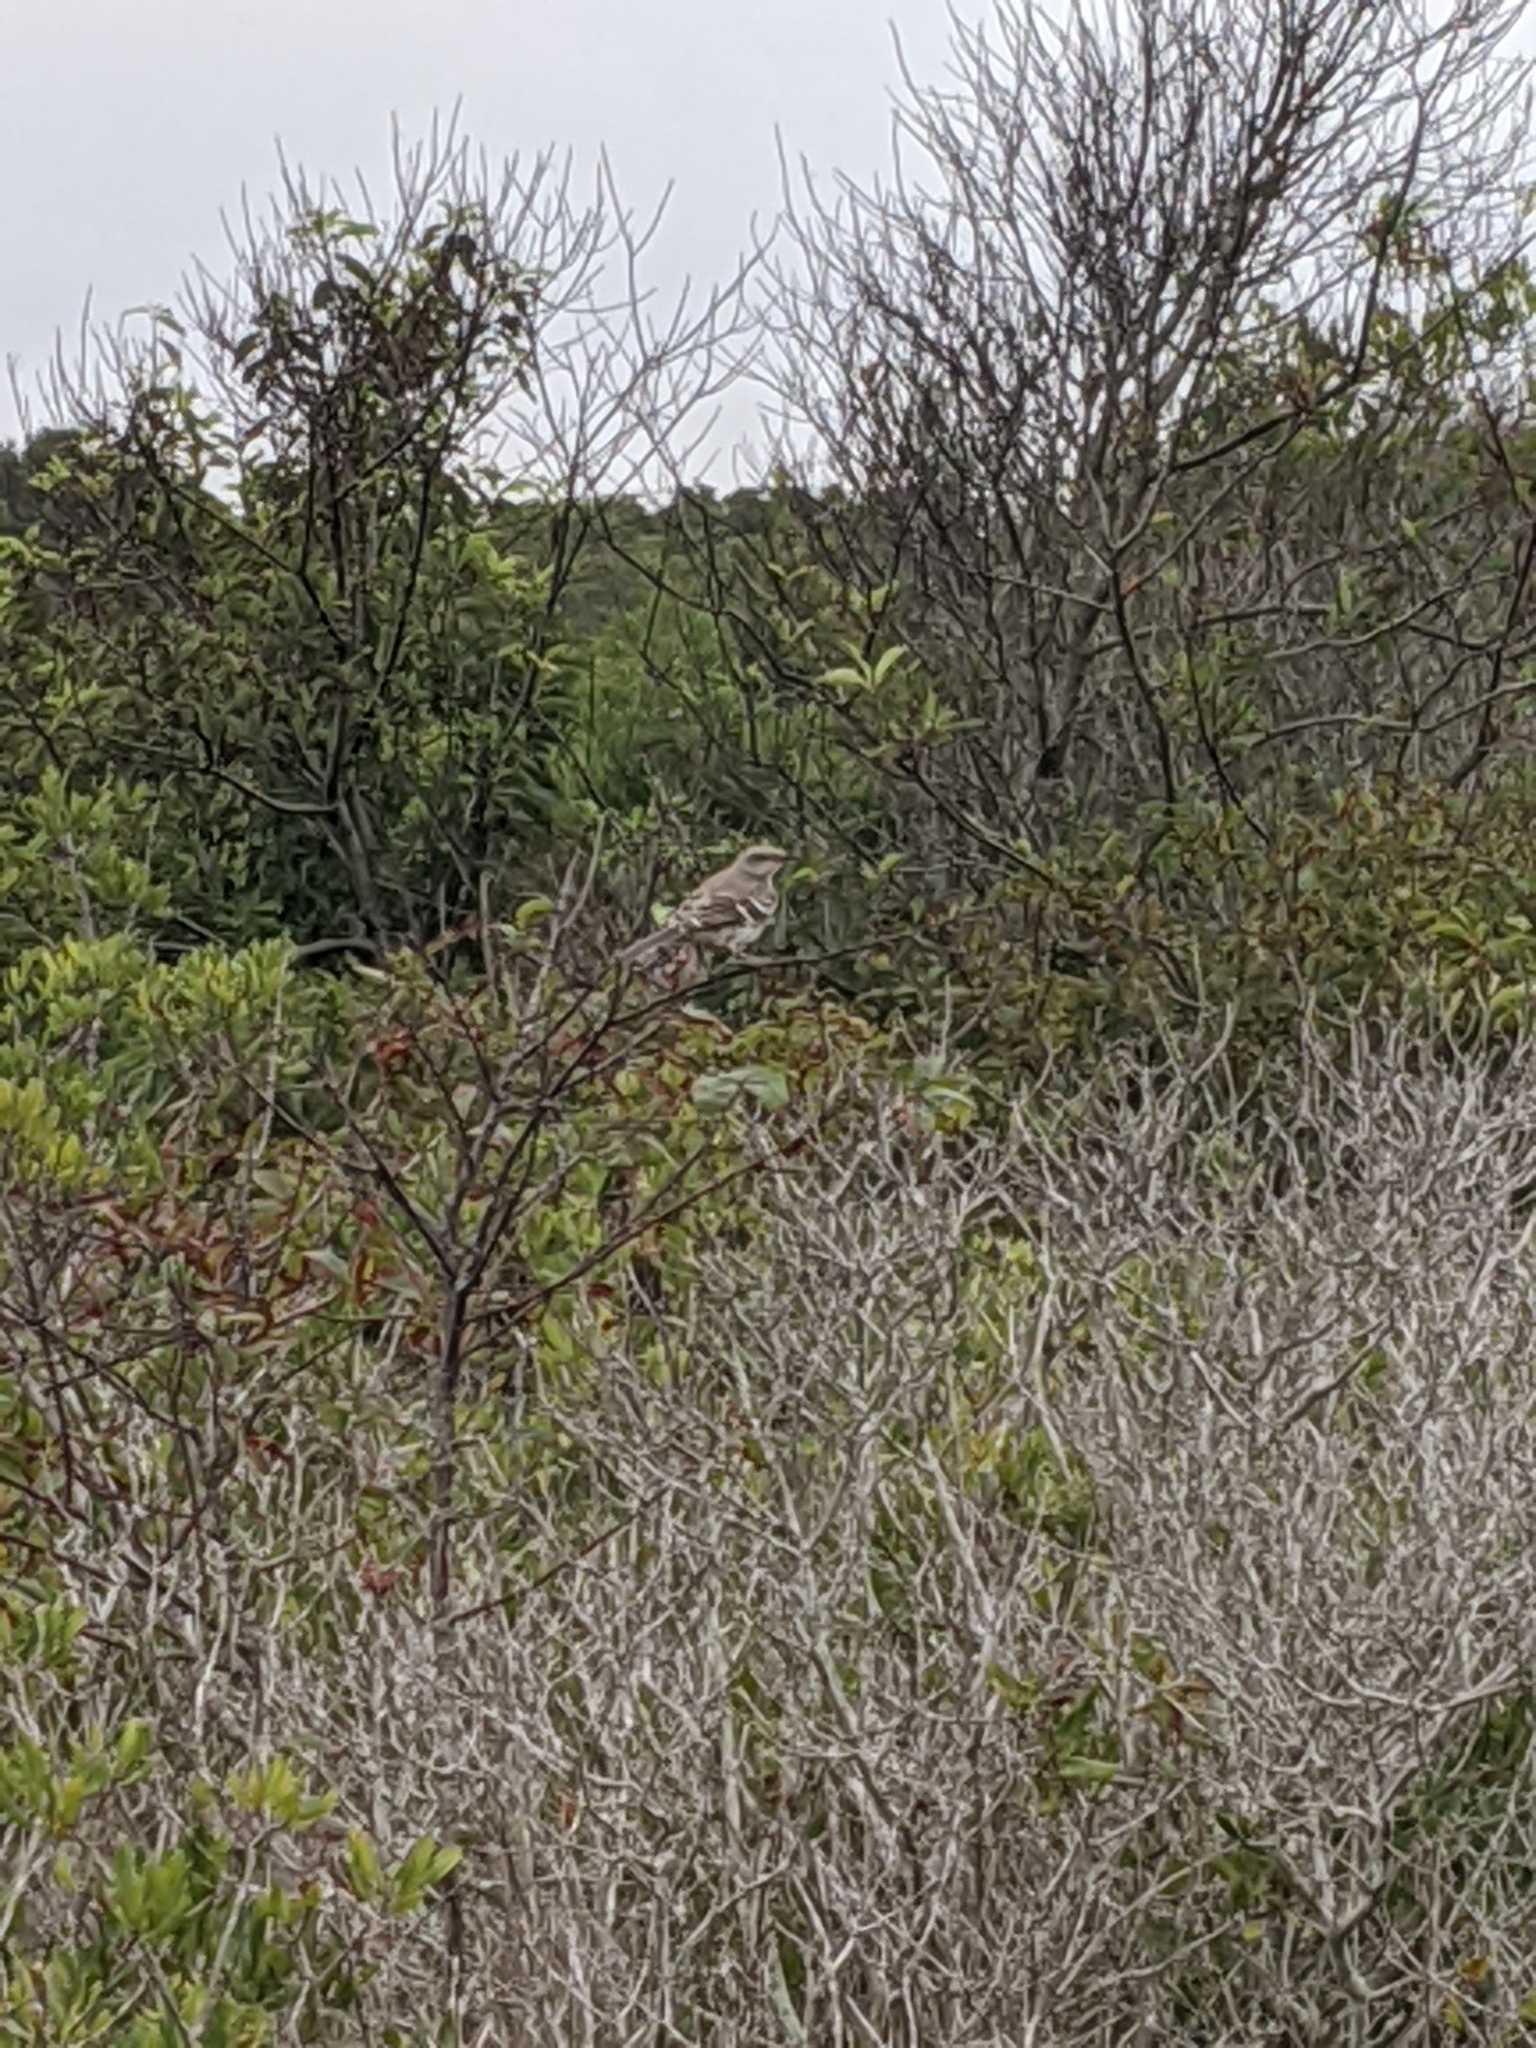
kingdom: Animalia
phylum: Chordata
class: Aves
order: Passeriformes
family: Mimidae
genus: Mimus
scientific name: Mimus polyglottos
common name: Northern mockingbird
